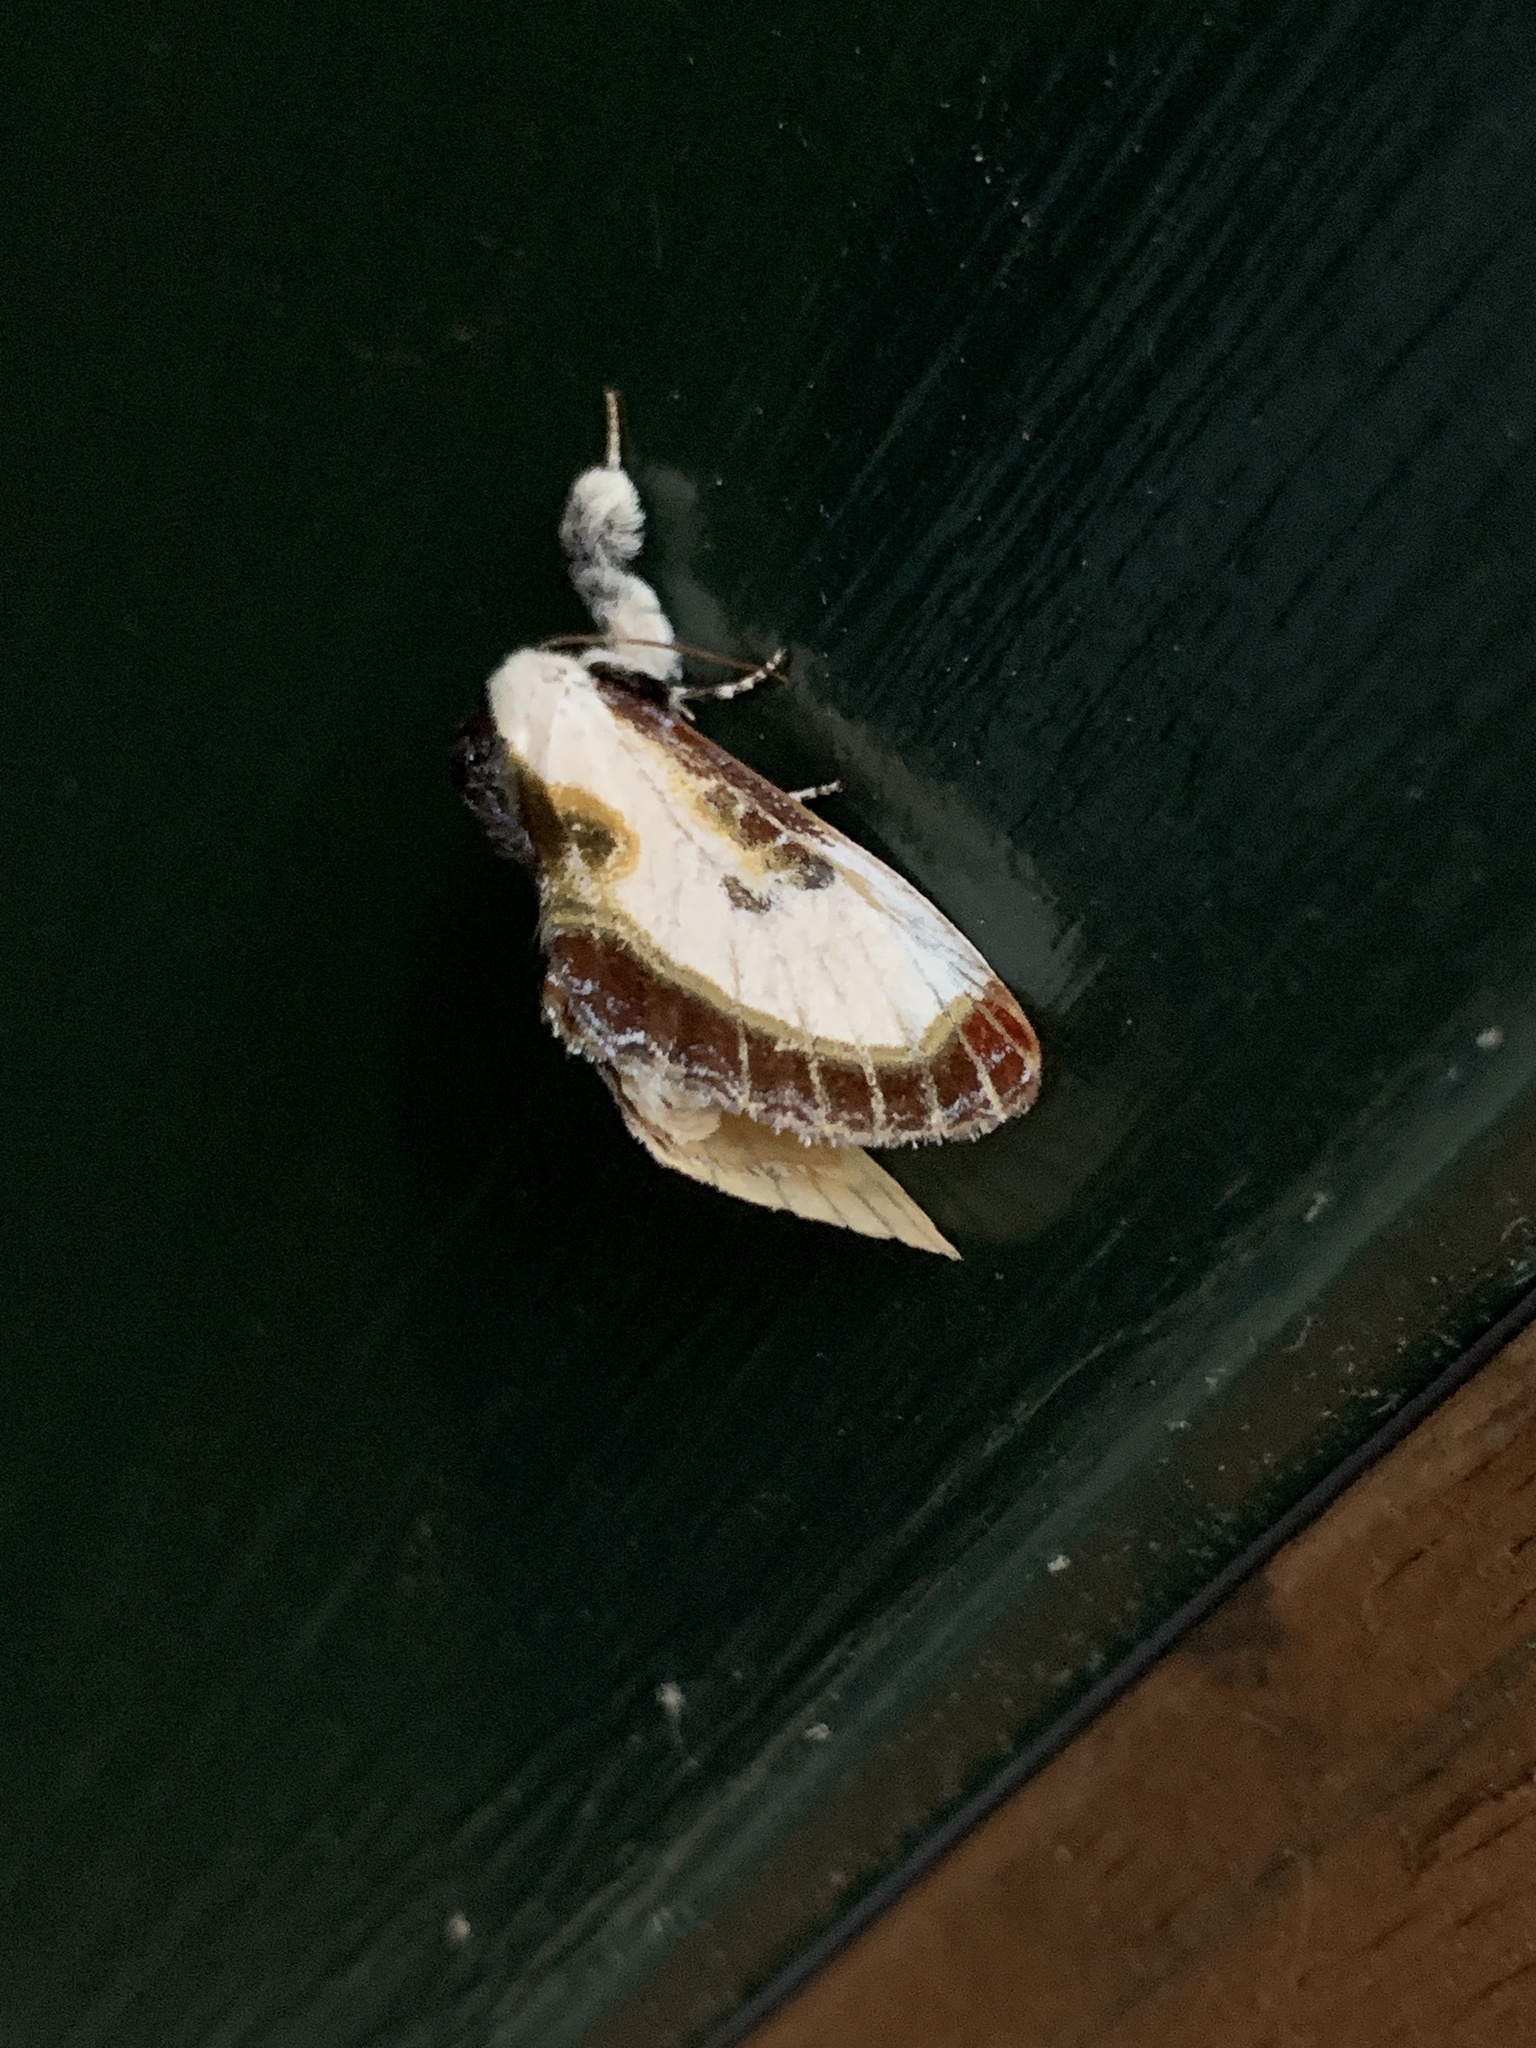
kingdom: Animalia
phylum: Arthropoda
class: Insecta
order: Lepidoptera
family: Noctuidae
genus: Eudryas
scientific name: Eudryas grata
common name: Beautiful wood-nymph
